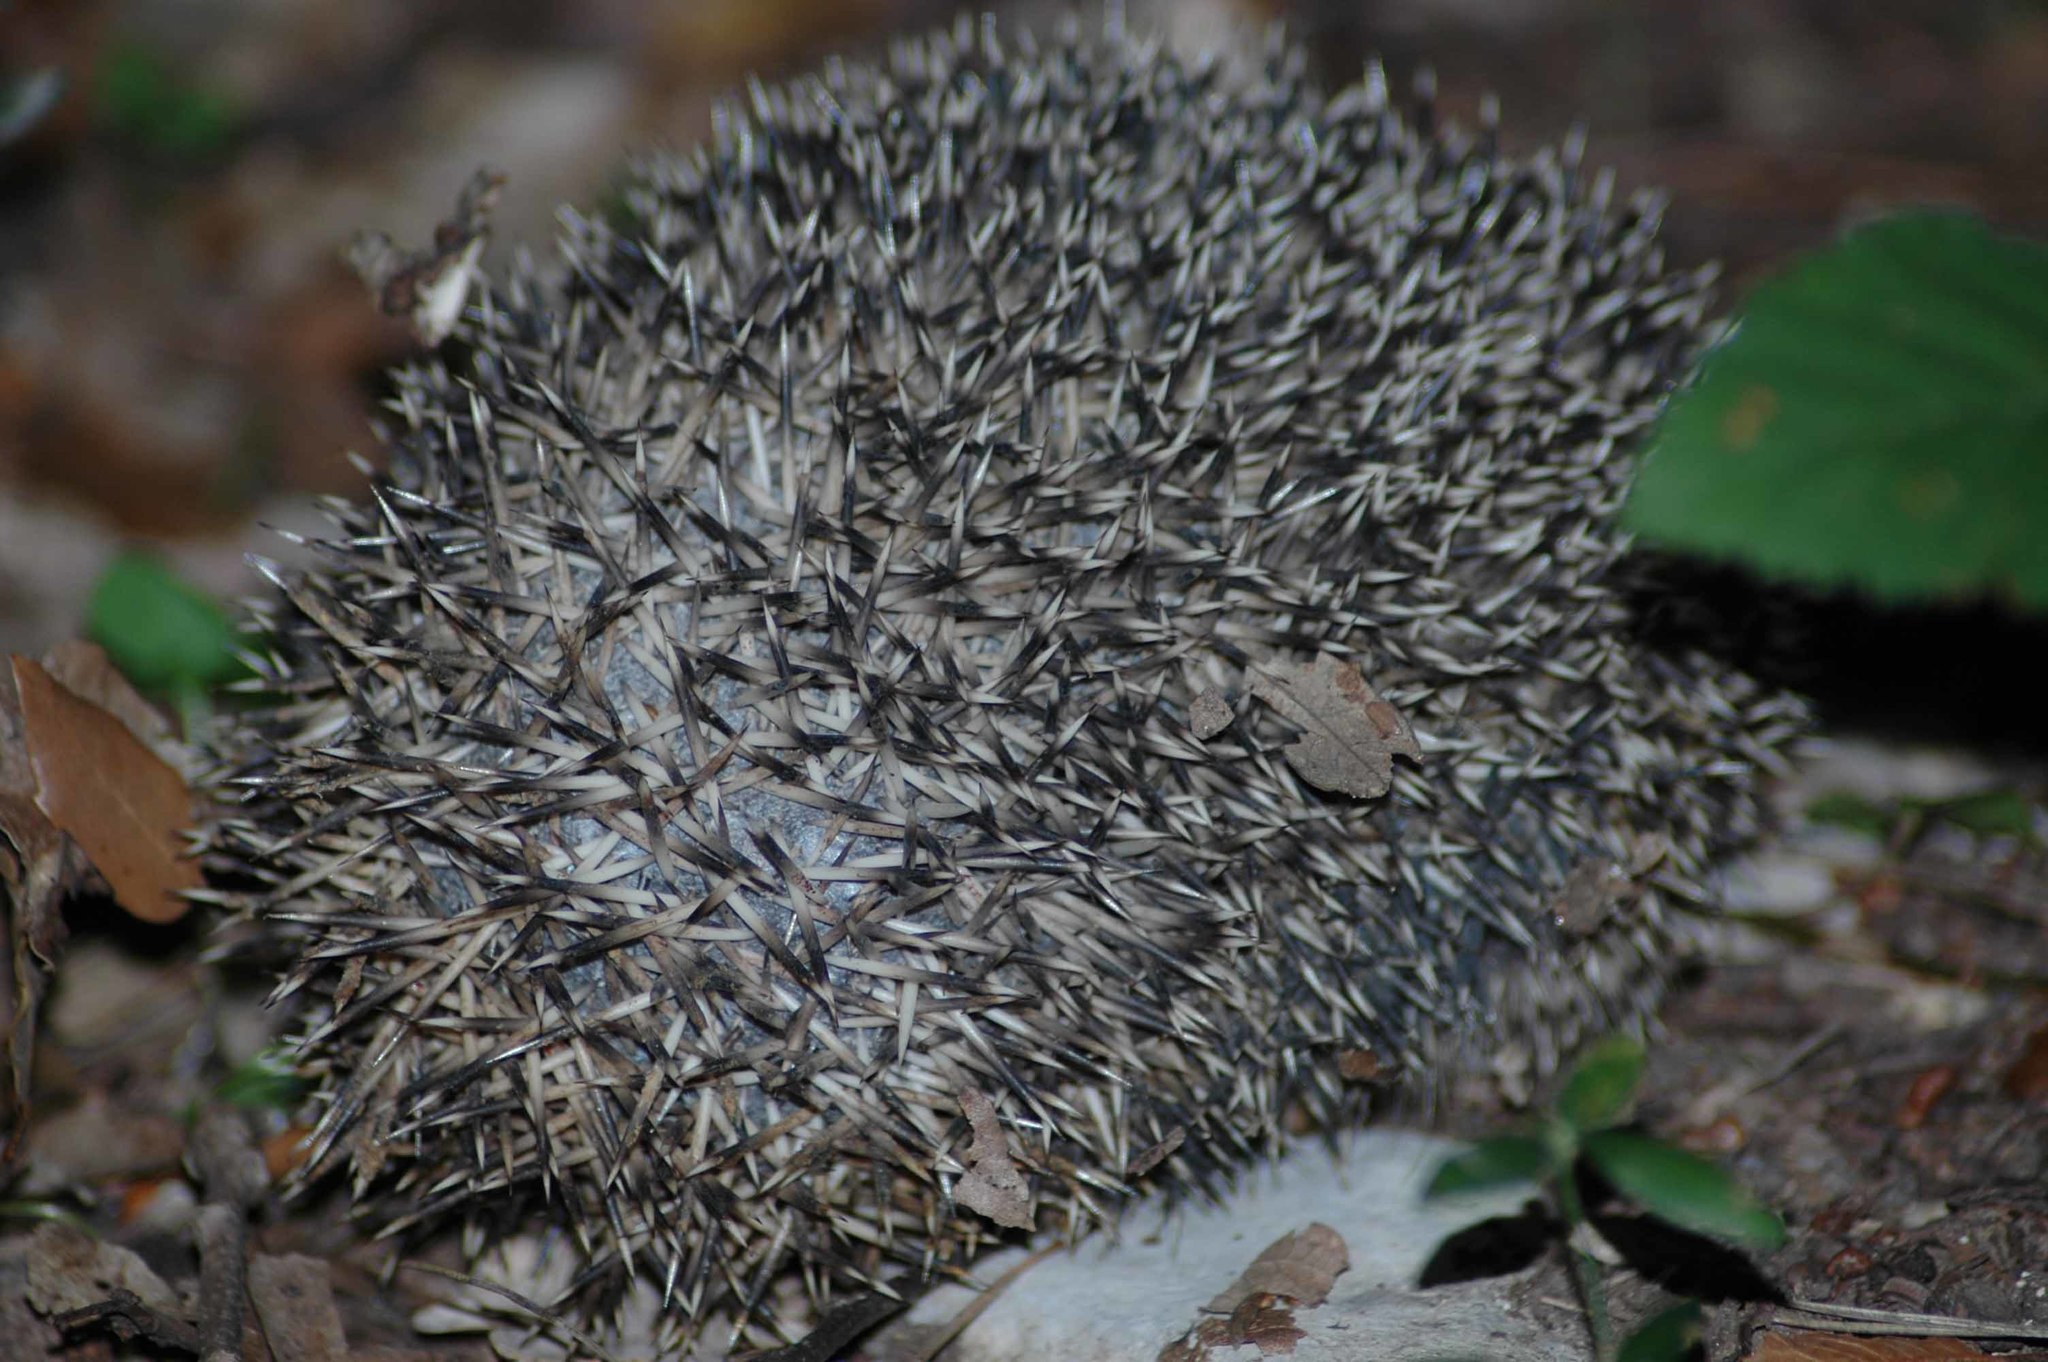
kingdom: Animalia
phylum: Chordata
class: Mammalia
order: Erinaceomorpha
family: Erinaceidae
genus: Erinaceus
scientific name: Erinaceus europaeus
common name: West european hedgehog
